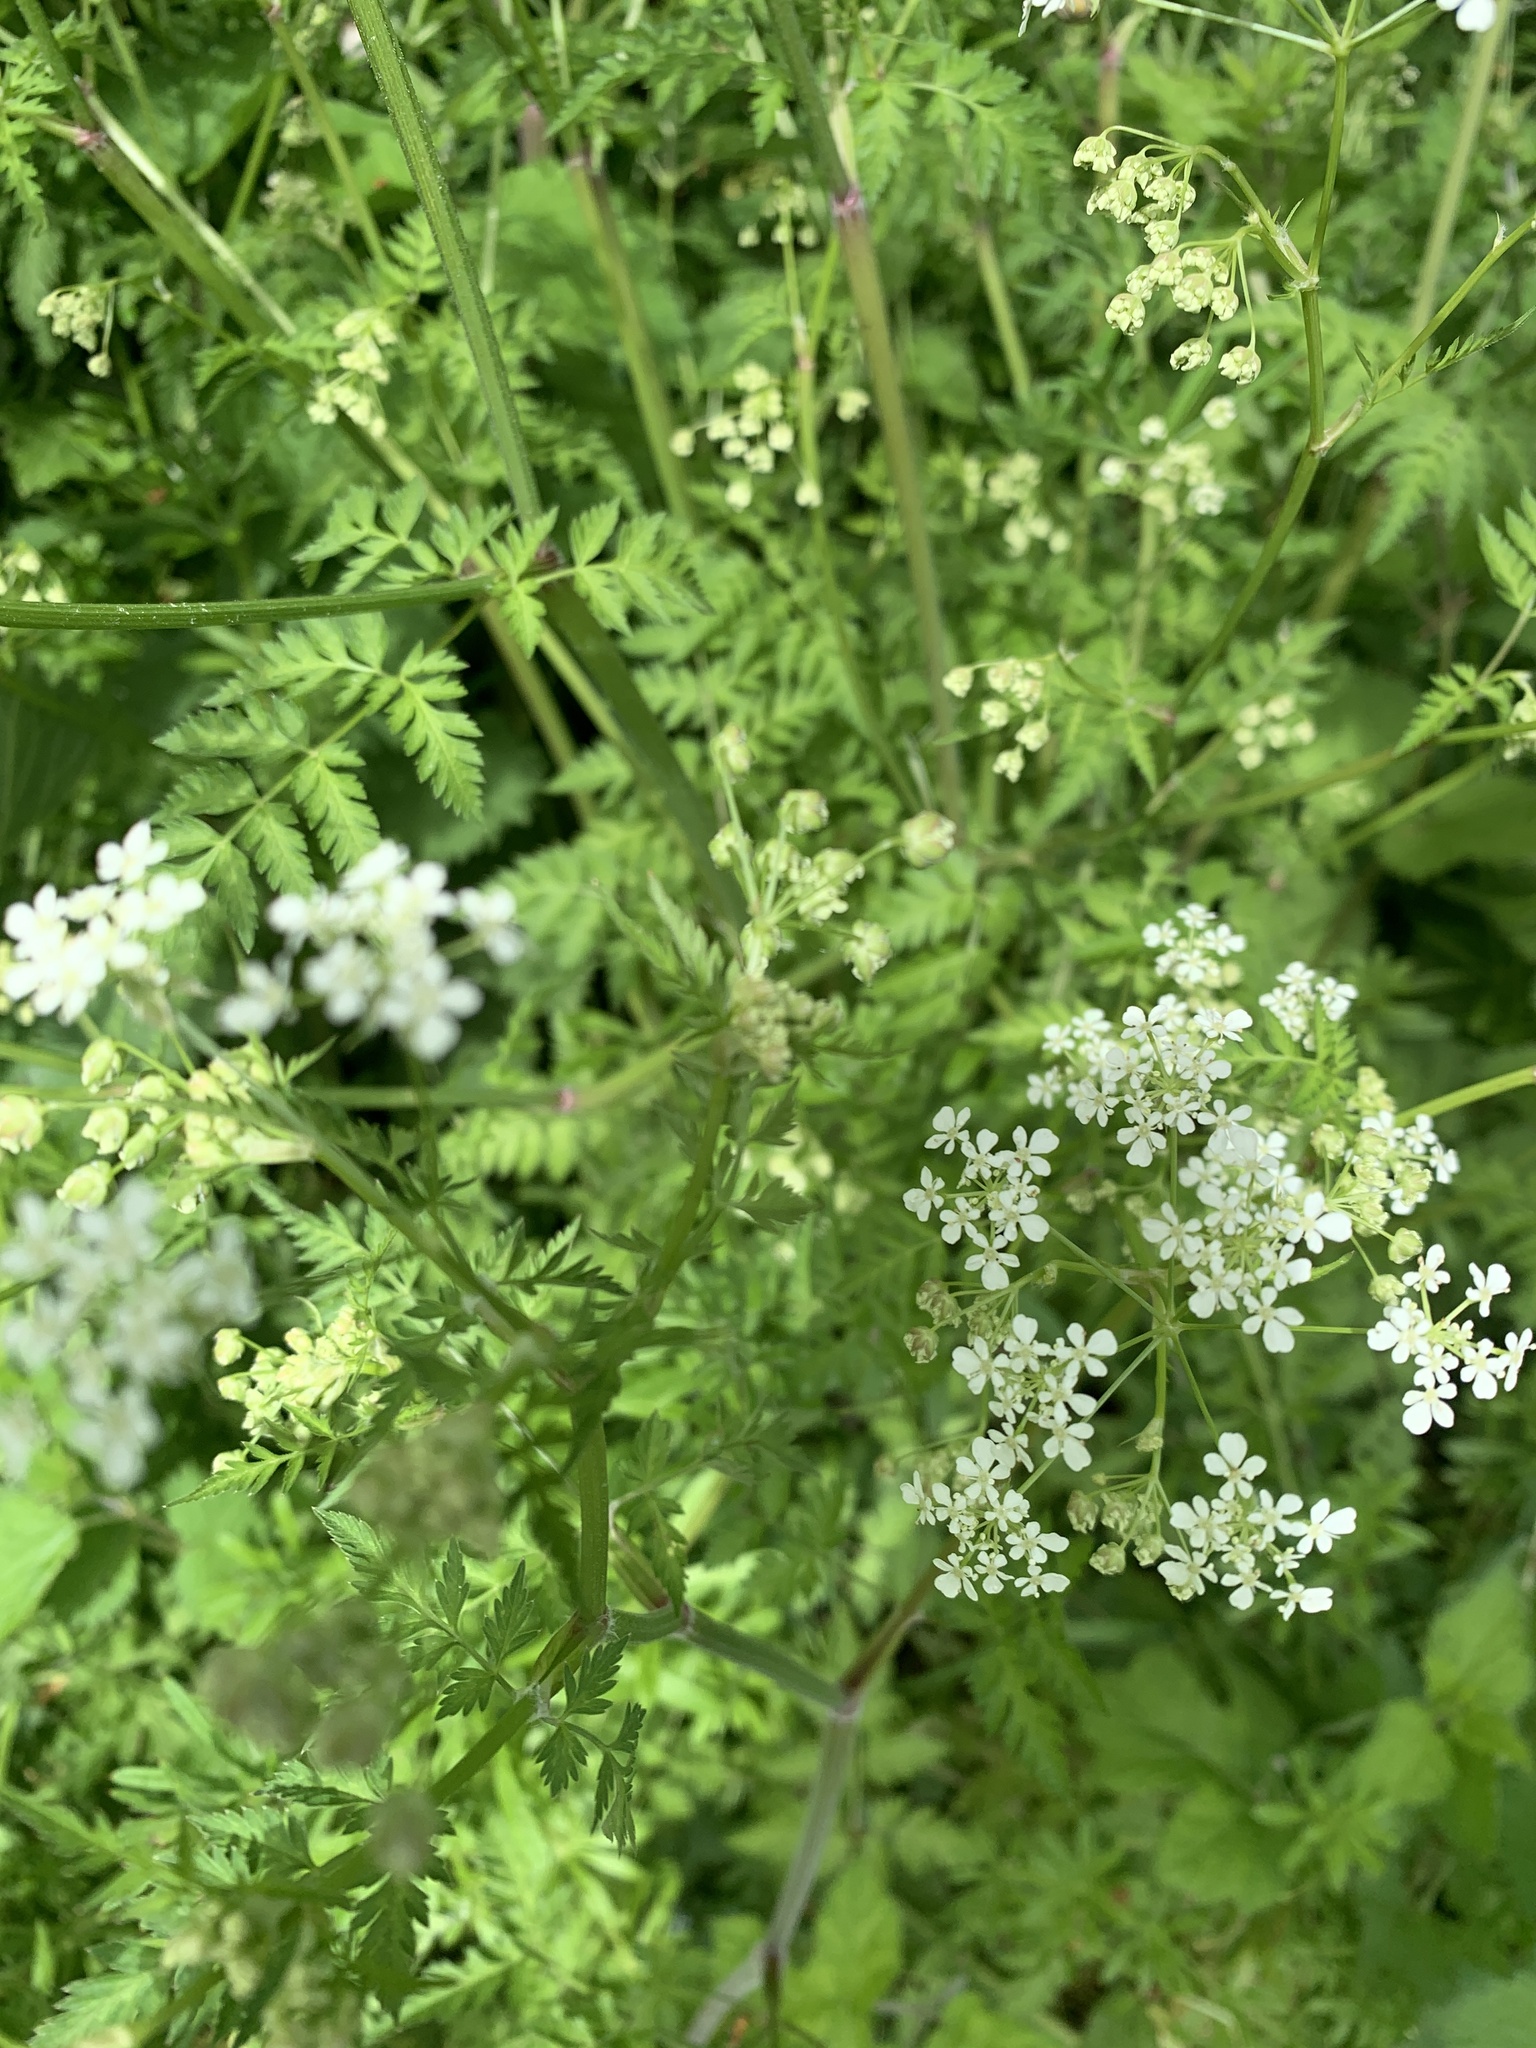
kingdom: Plantae
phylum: Tracheophyta
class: Magnoliopsida
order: Apiales
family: Apiaceae
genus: Anthriscus
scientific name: Anthriscus sylvestris
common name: Cow parsley
